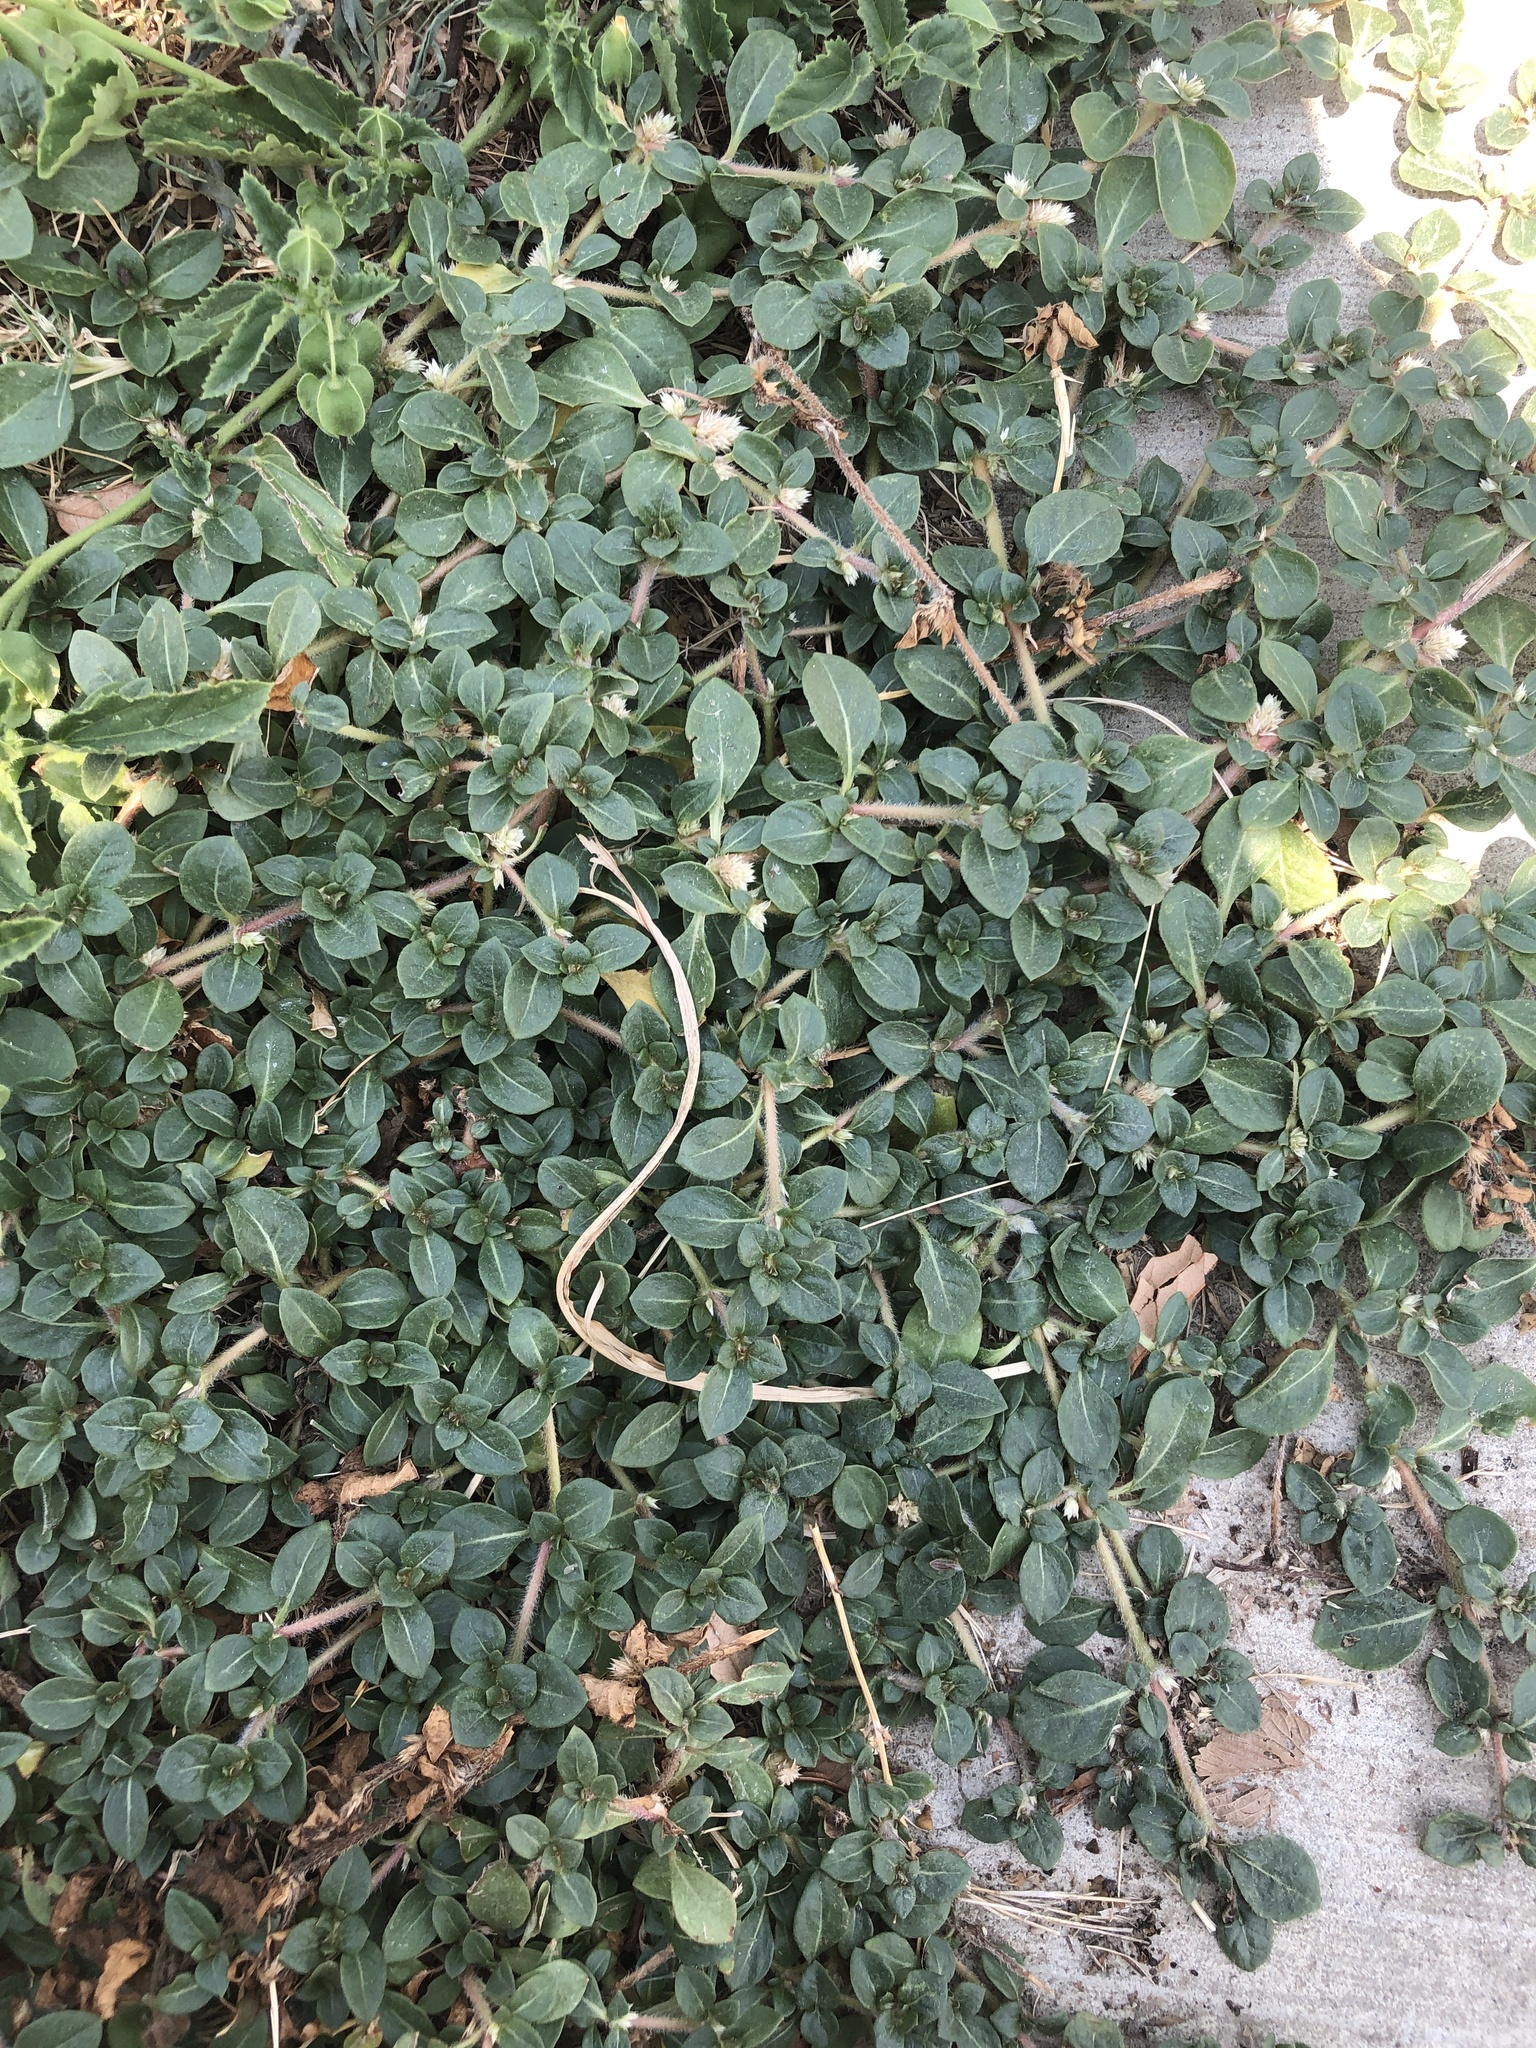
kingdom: Plantae
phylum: Tracheophyta
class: Magnoliopsida
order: Caryophyllales
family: Amaranthaceae
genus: Alternanthera
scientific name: Alternanthera caracasana
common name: Washerwoman
